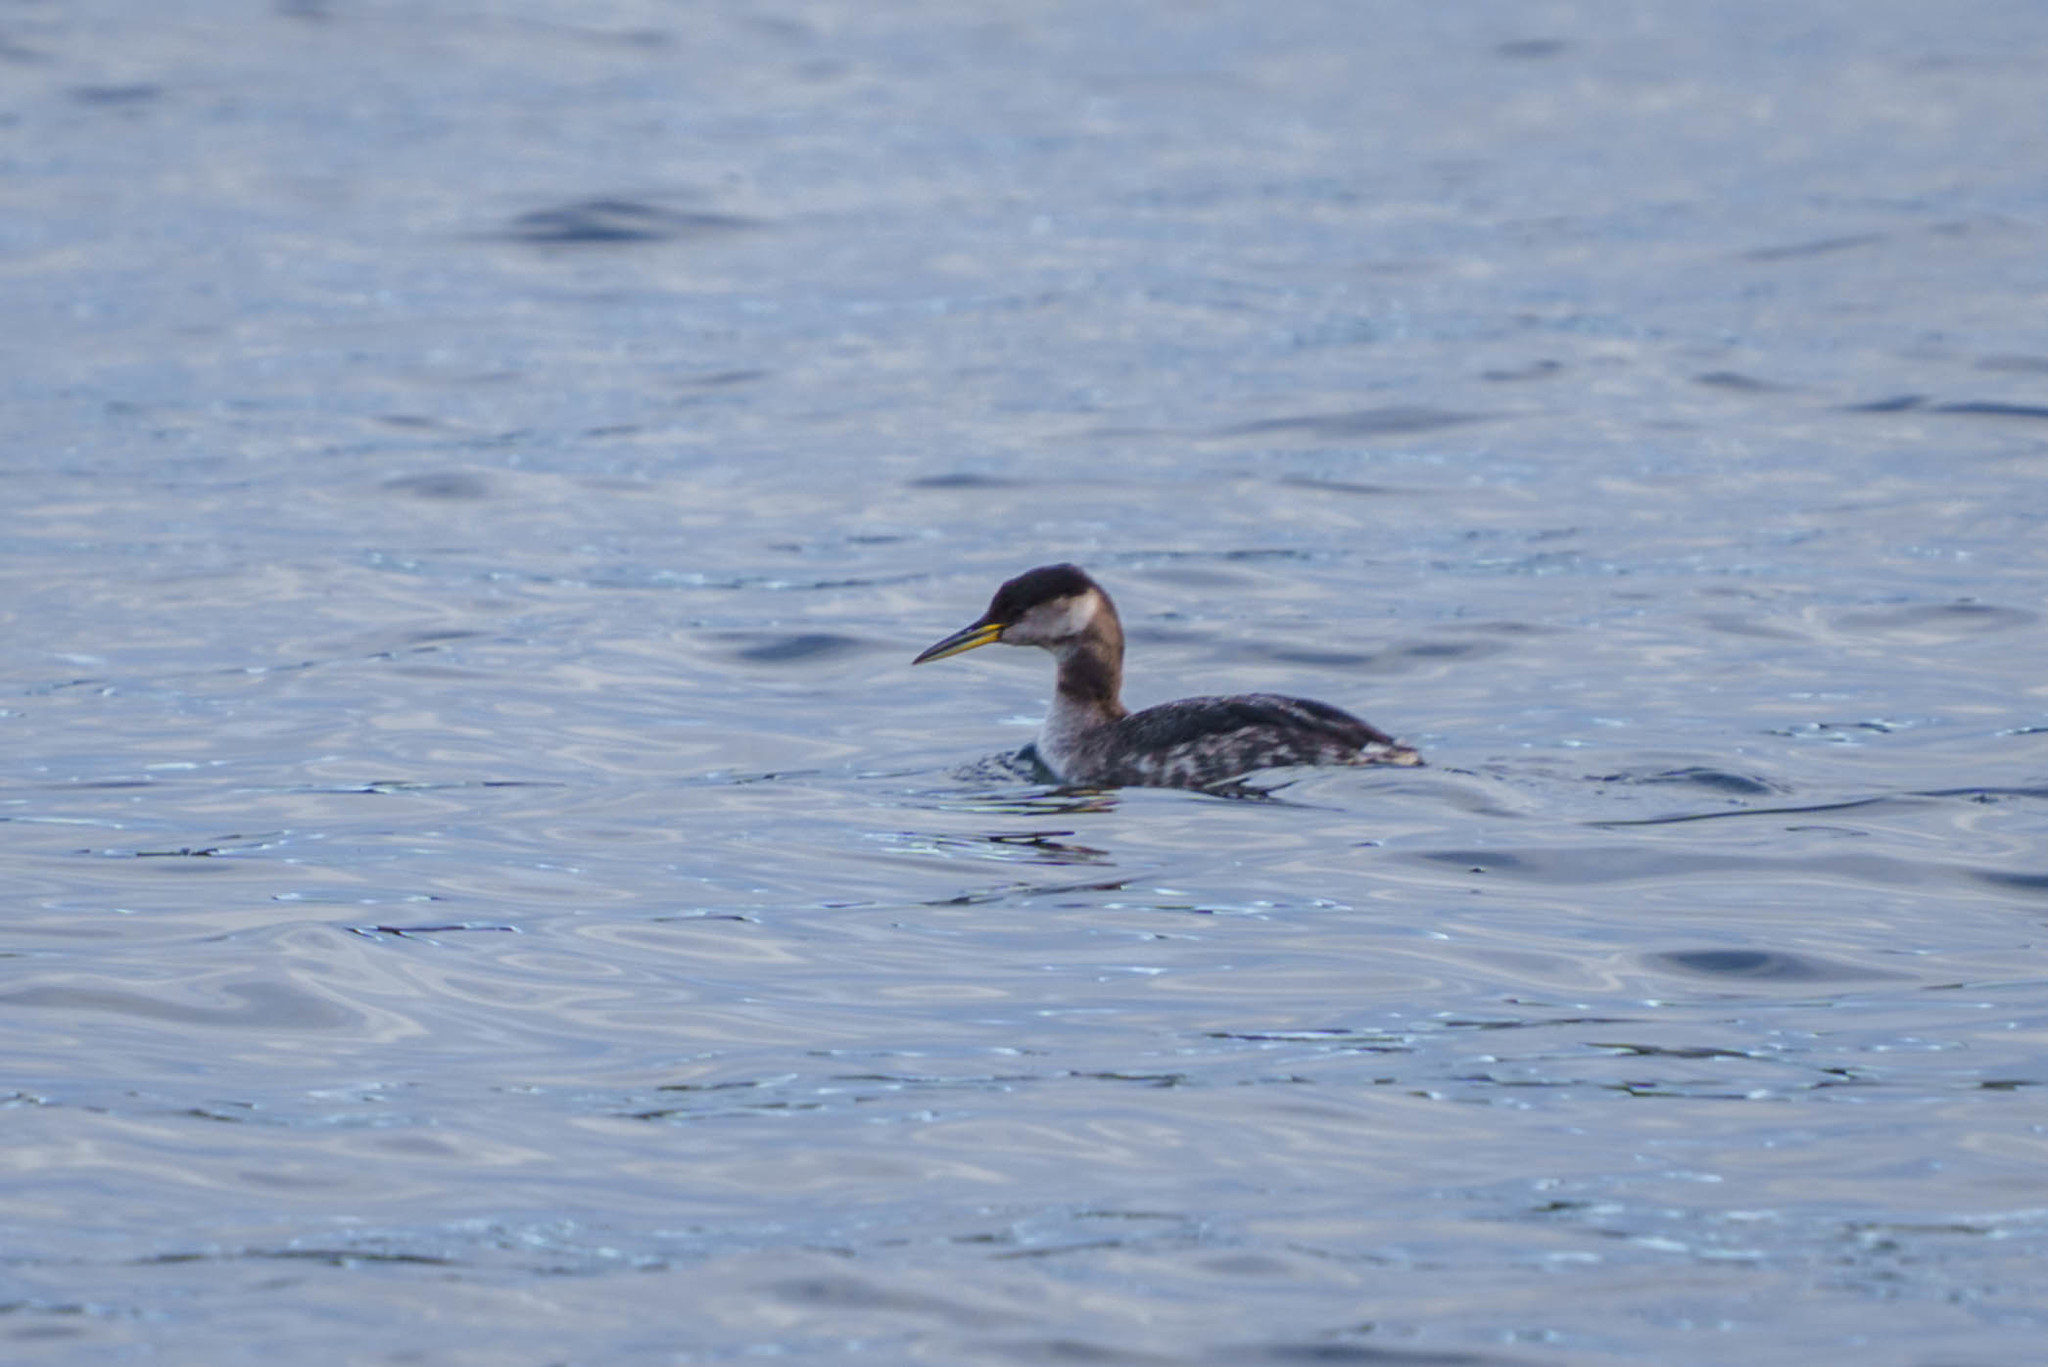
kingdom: Animalia
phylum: Chordata
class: Aves
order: Podicipediformes
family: Podicipedidae
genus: Podiceps
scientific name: Podiceps grisegena
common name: Red-necked grebe
